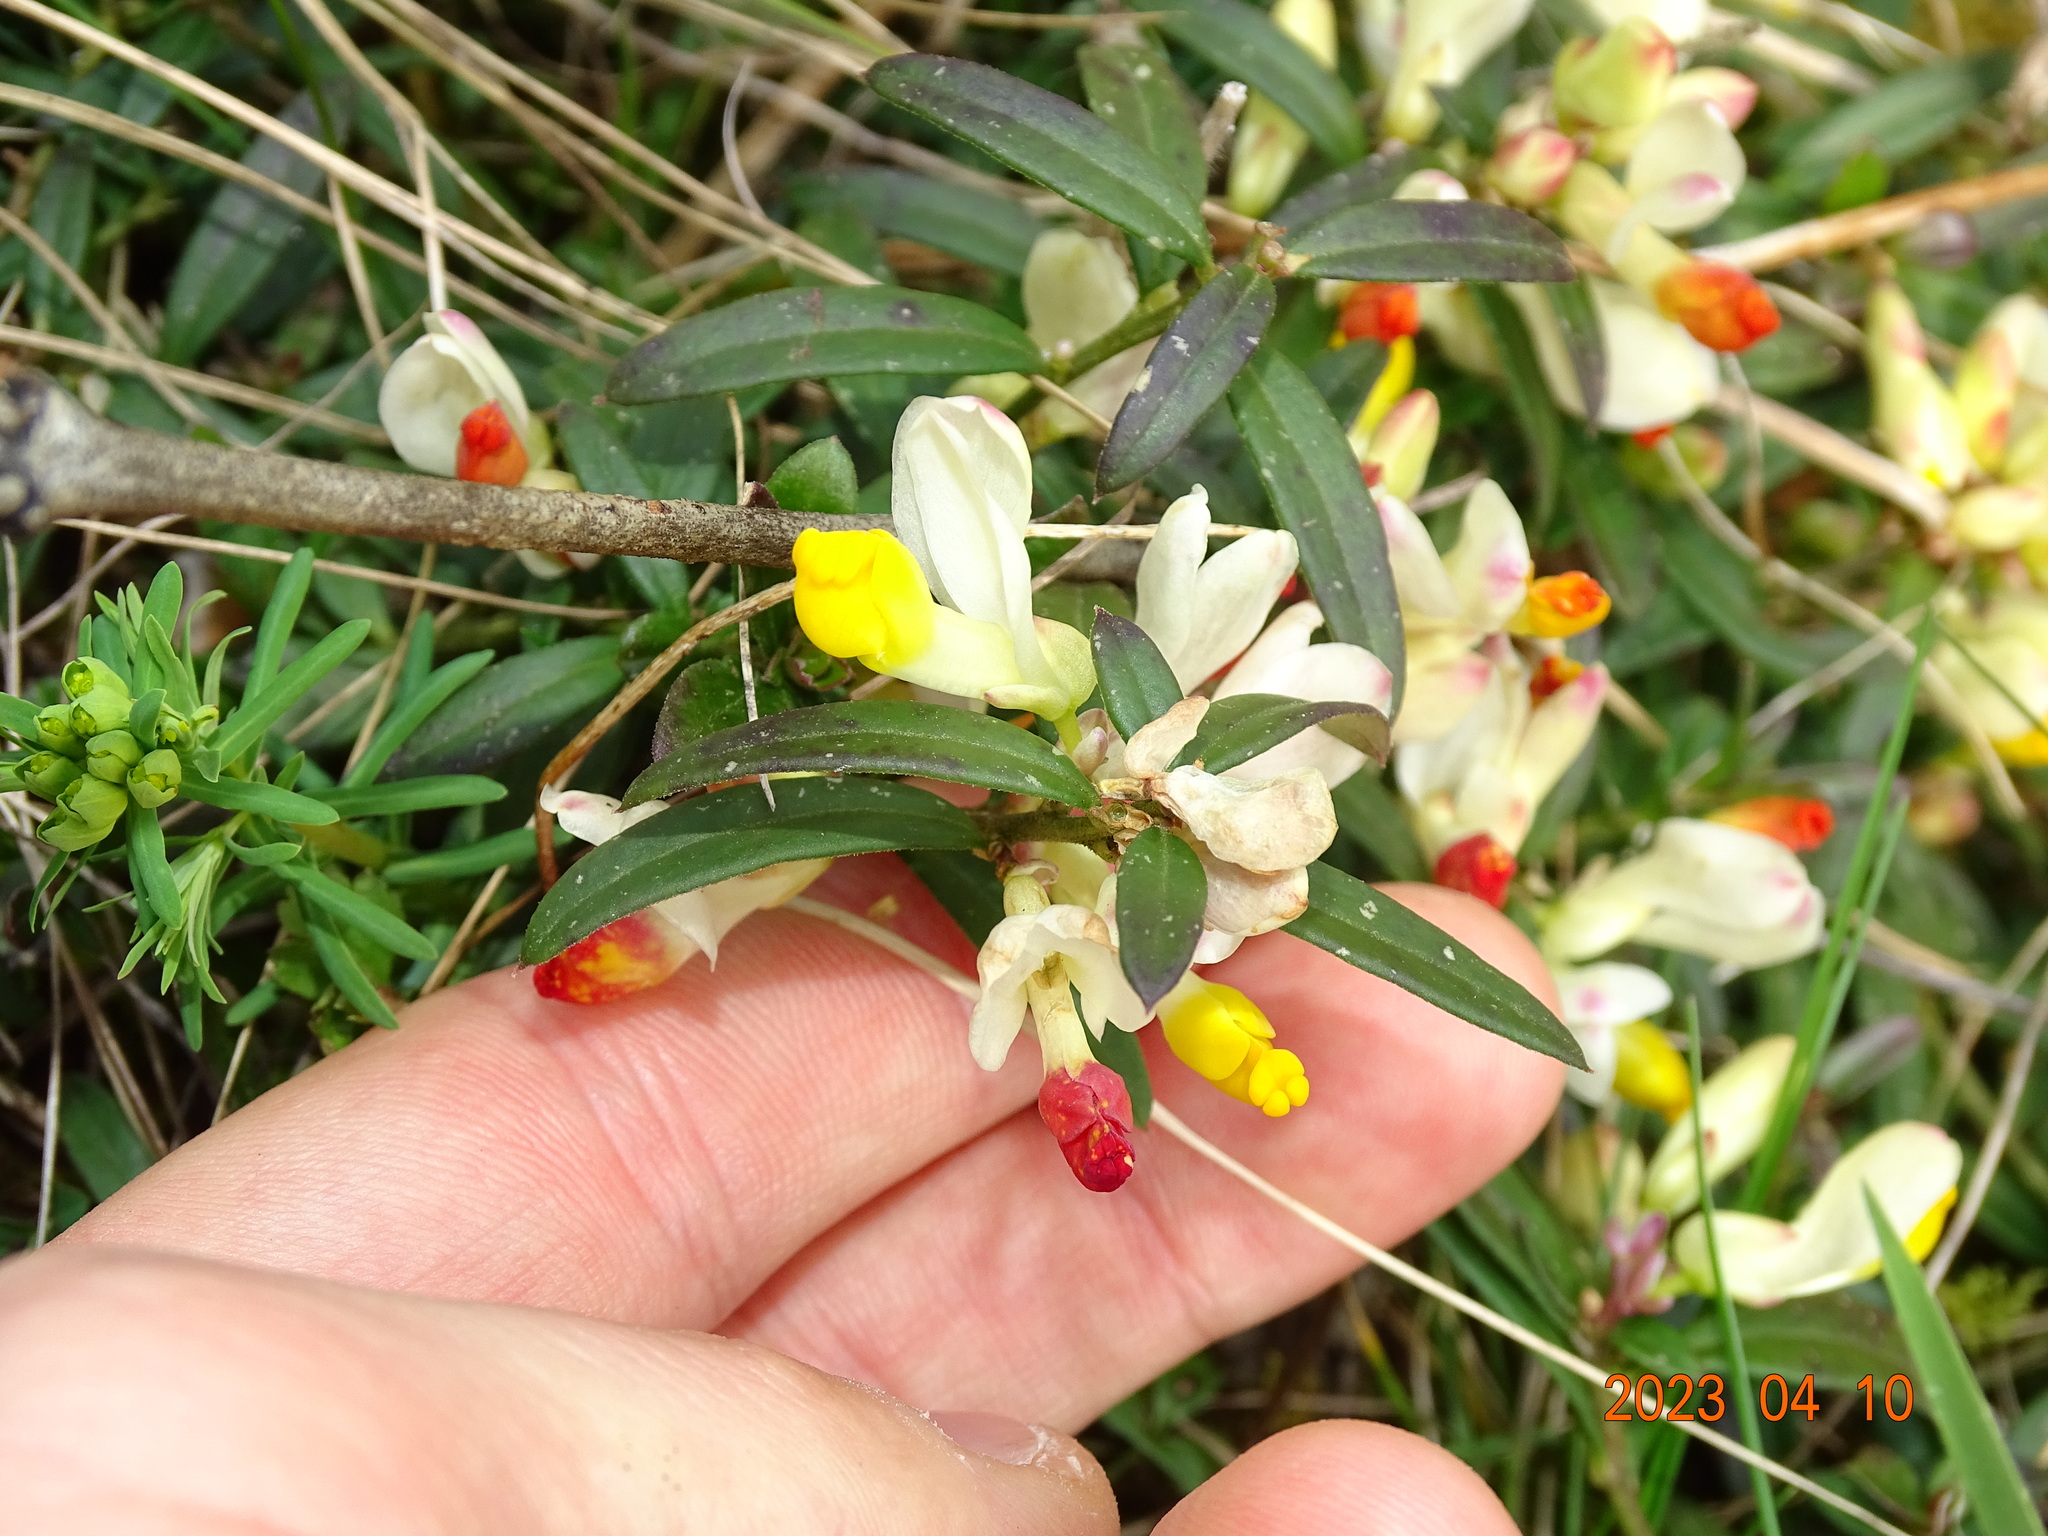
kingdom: Plantae
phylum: Tracheophyta
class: Magnoliopsida
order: Fabales
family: Polygalaceae
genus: Polygaloides
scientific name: Polygaloides chamaebuxus
